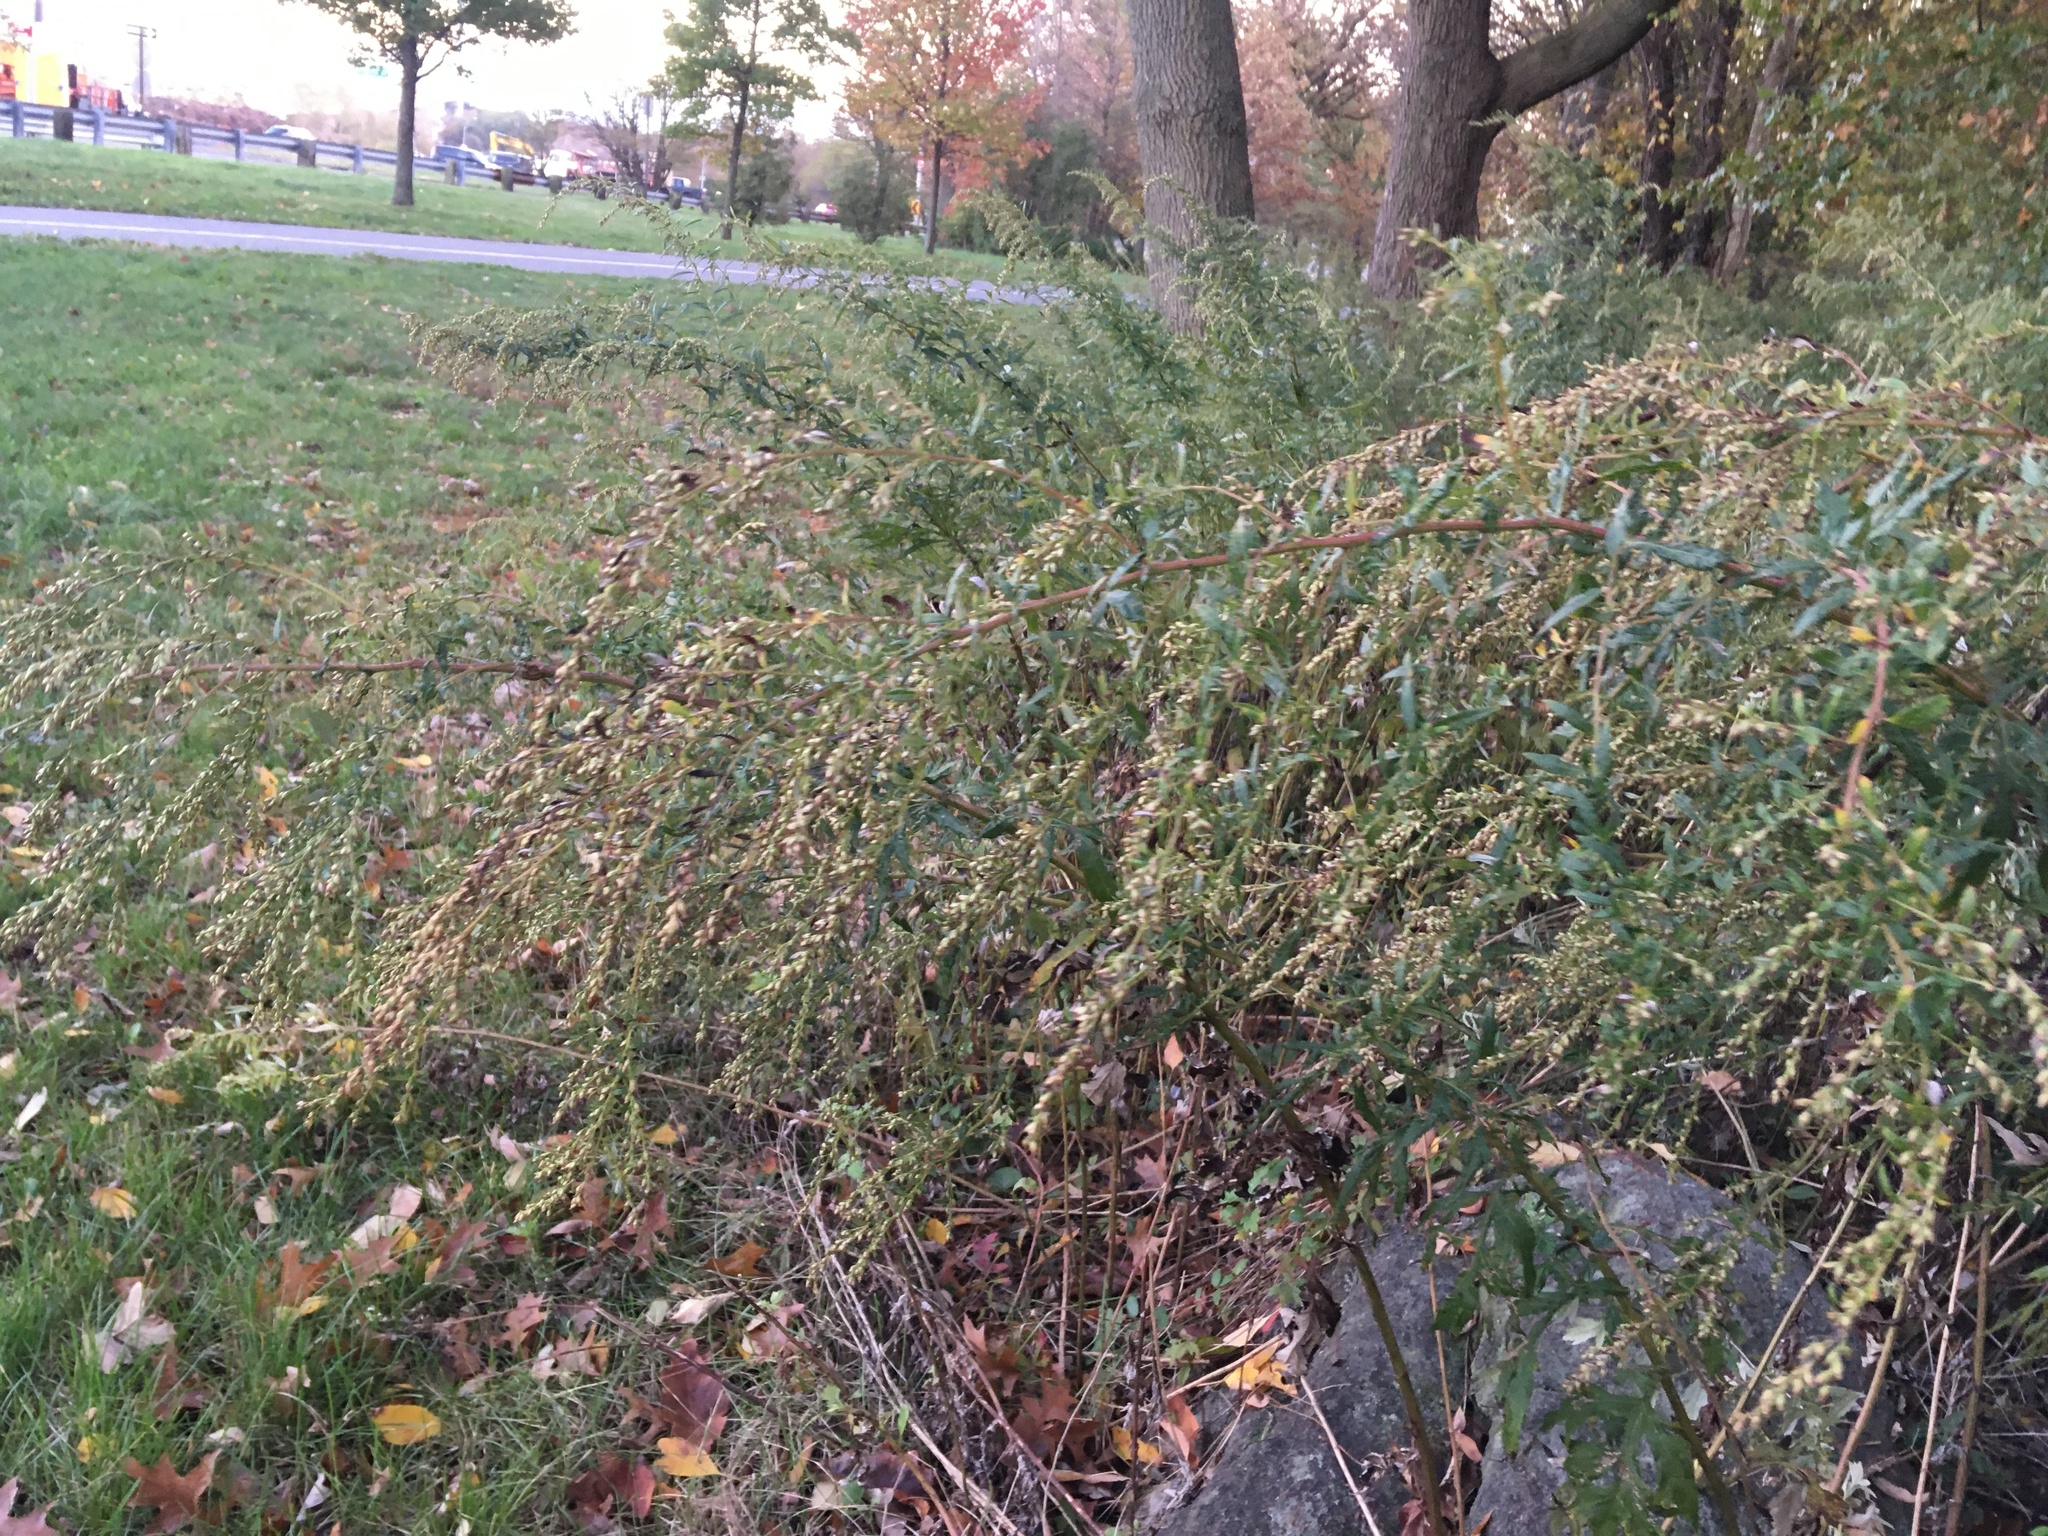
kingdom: Plantae
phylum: Tracheophyta
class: Magnoliopsida
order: Asterales
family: Asteraceae
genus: Artemisia
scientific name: Artemisia vulgaris
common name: Mugwort
